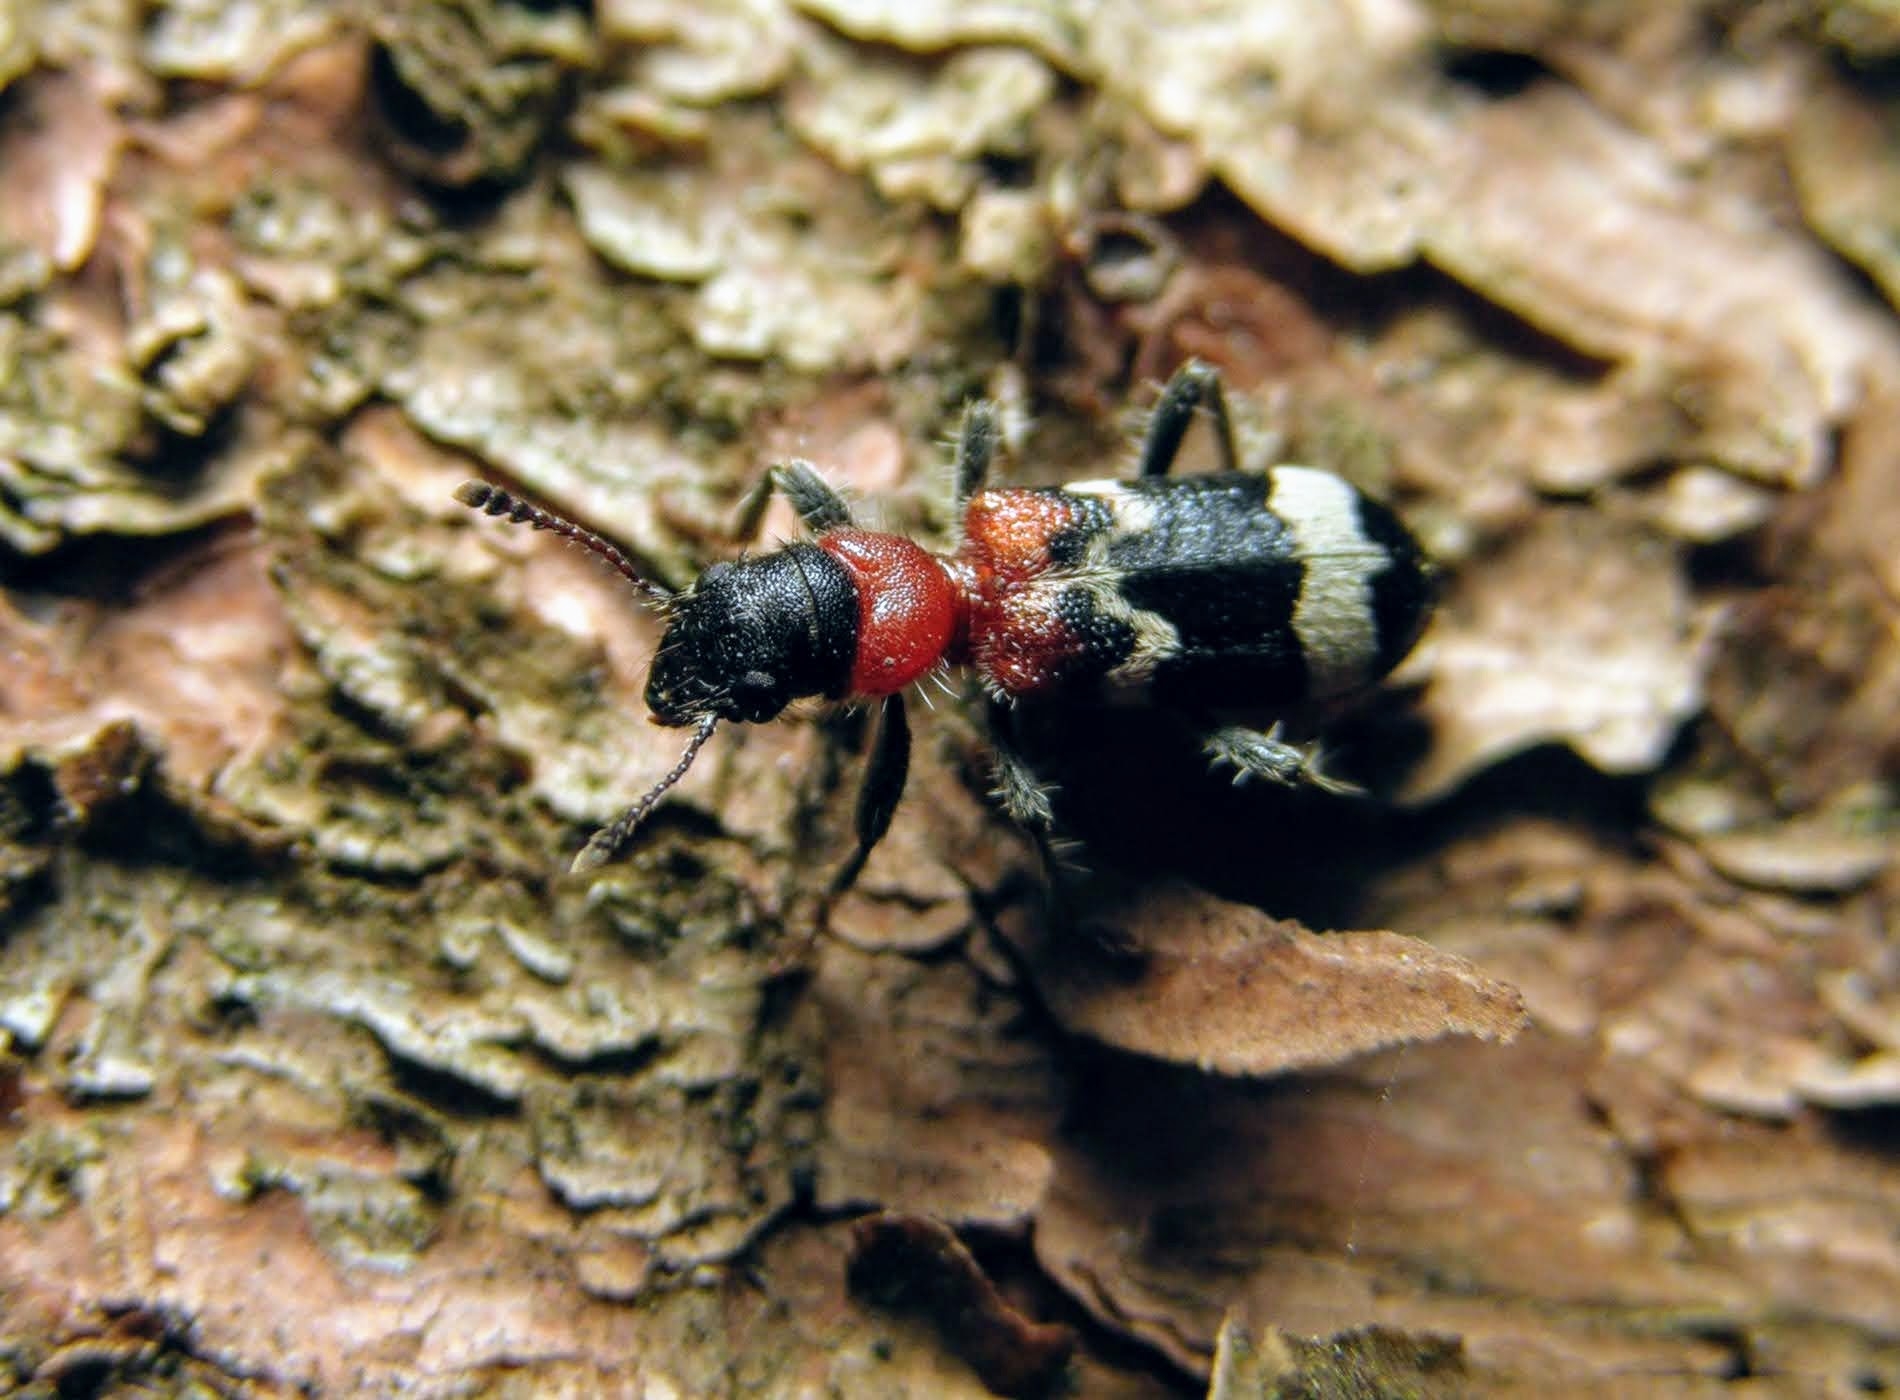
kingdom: Animalia
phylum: Arthropoda
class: Insecta
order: Coleoptera
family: Cleridae
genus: Thanasimus
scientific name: Thanasimus formicarius
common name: Ant beetle
